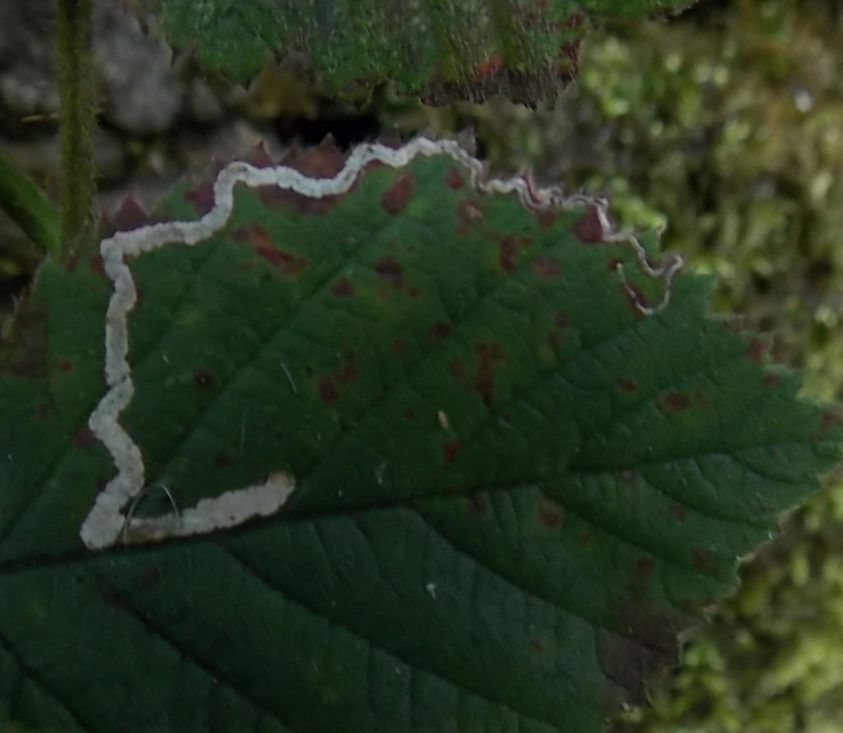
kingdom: Animalia
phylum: Arthropoda
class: Insecta
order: Lepidoptera
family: Nepticulidae
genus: Stigmella
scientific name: Stigmella aurella
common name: Golden pigmy
